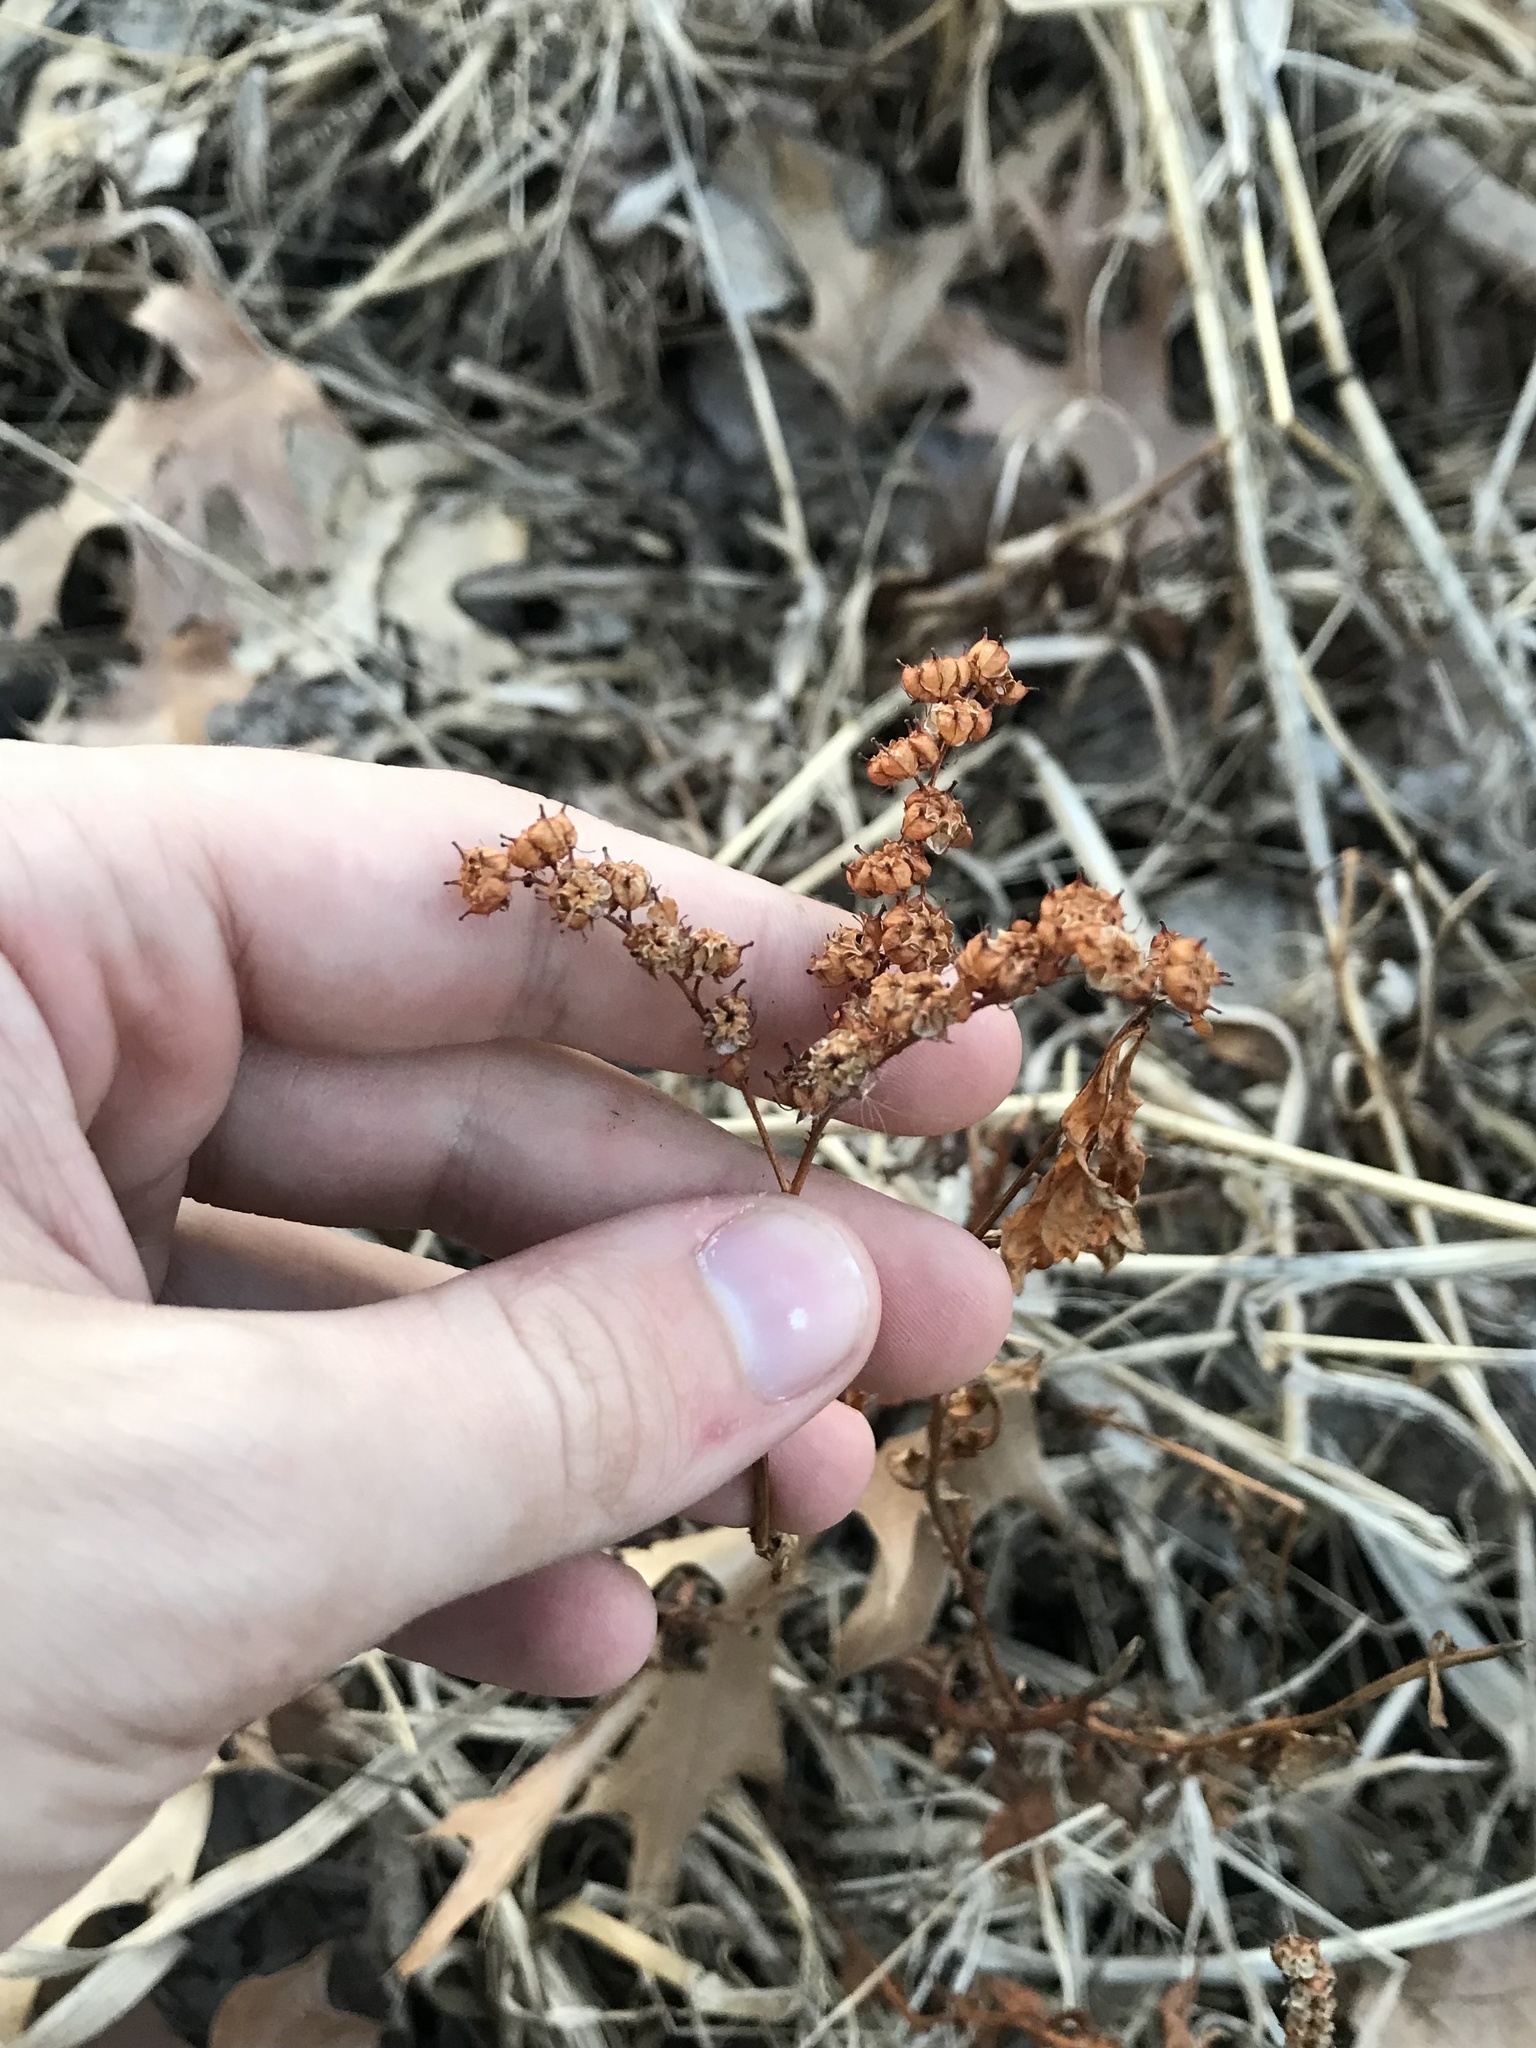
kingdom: Plantae
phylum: Tracheophyta
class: Magnoliopsida
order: Saxifragales
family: Penthoraceae
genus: Penthorum
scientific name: Penthorum sedoides
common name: Ditch stonecrop
